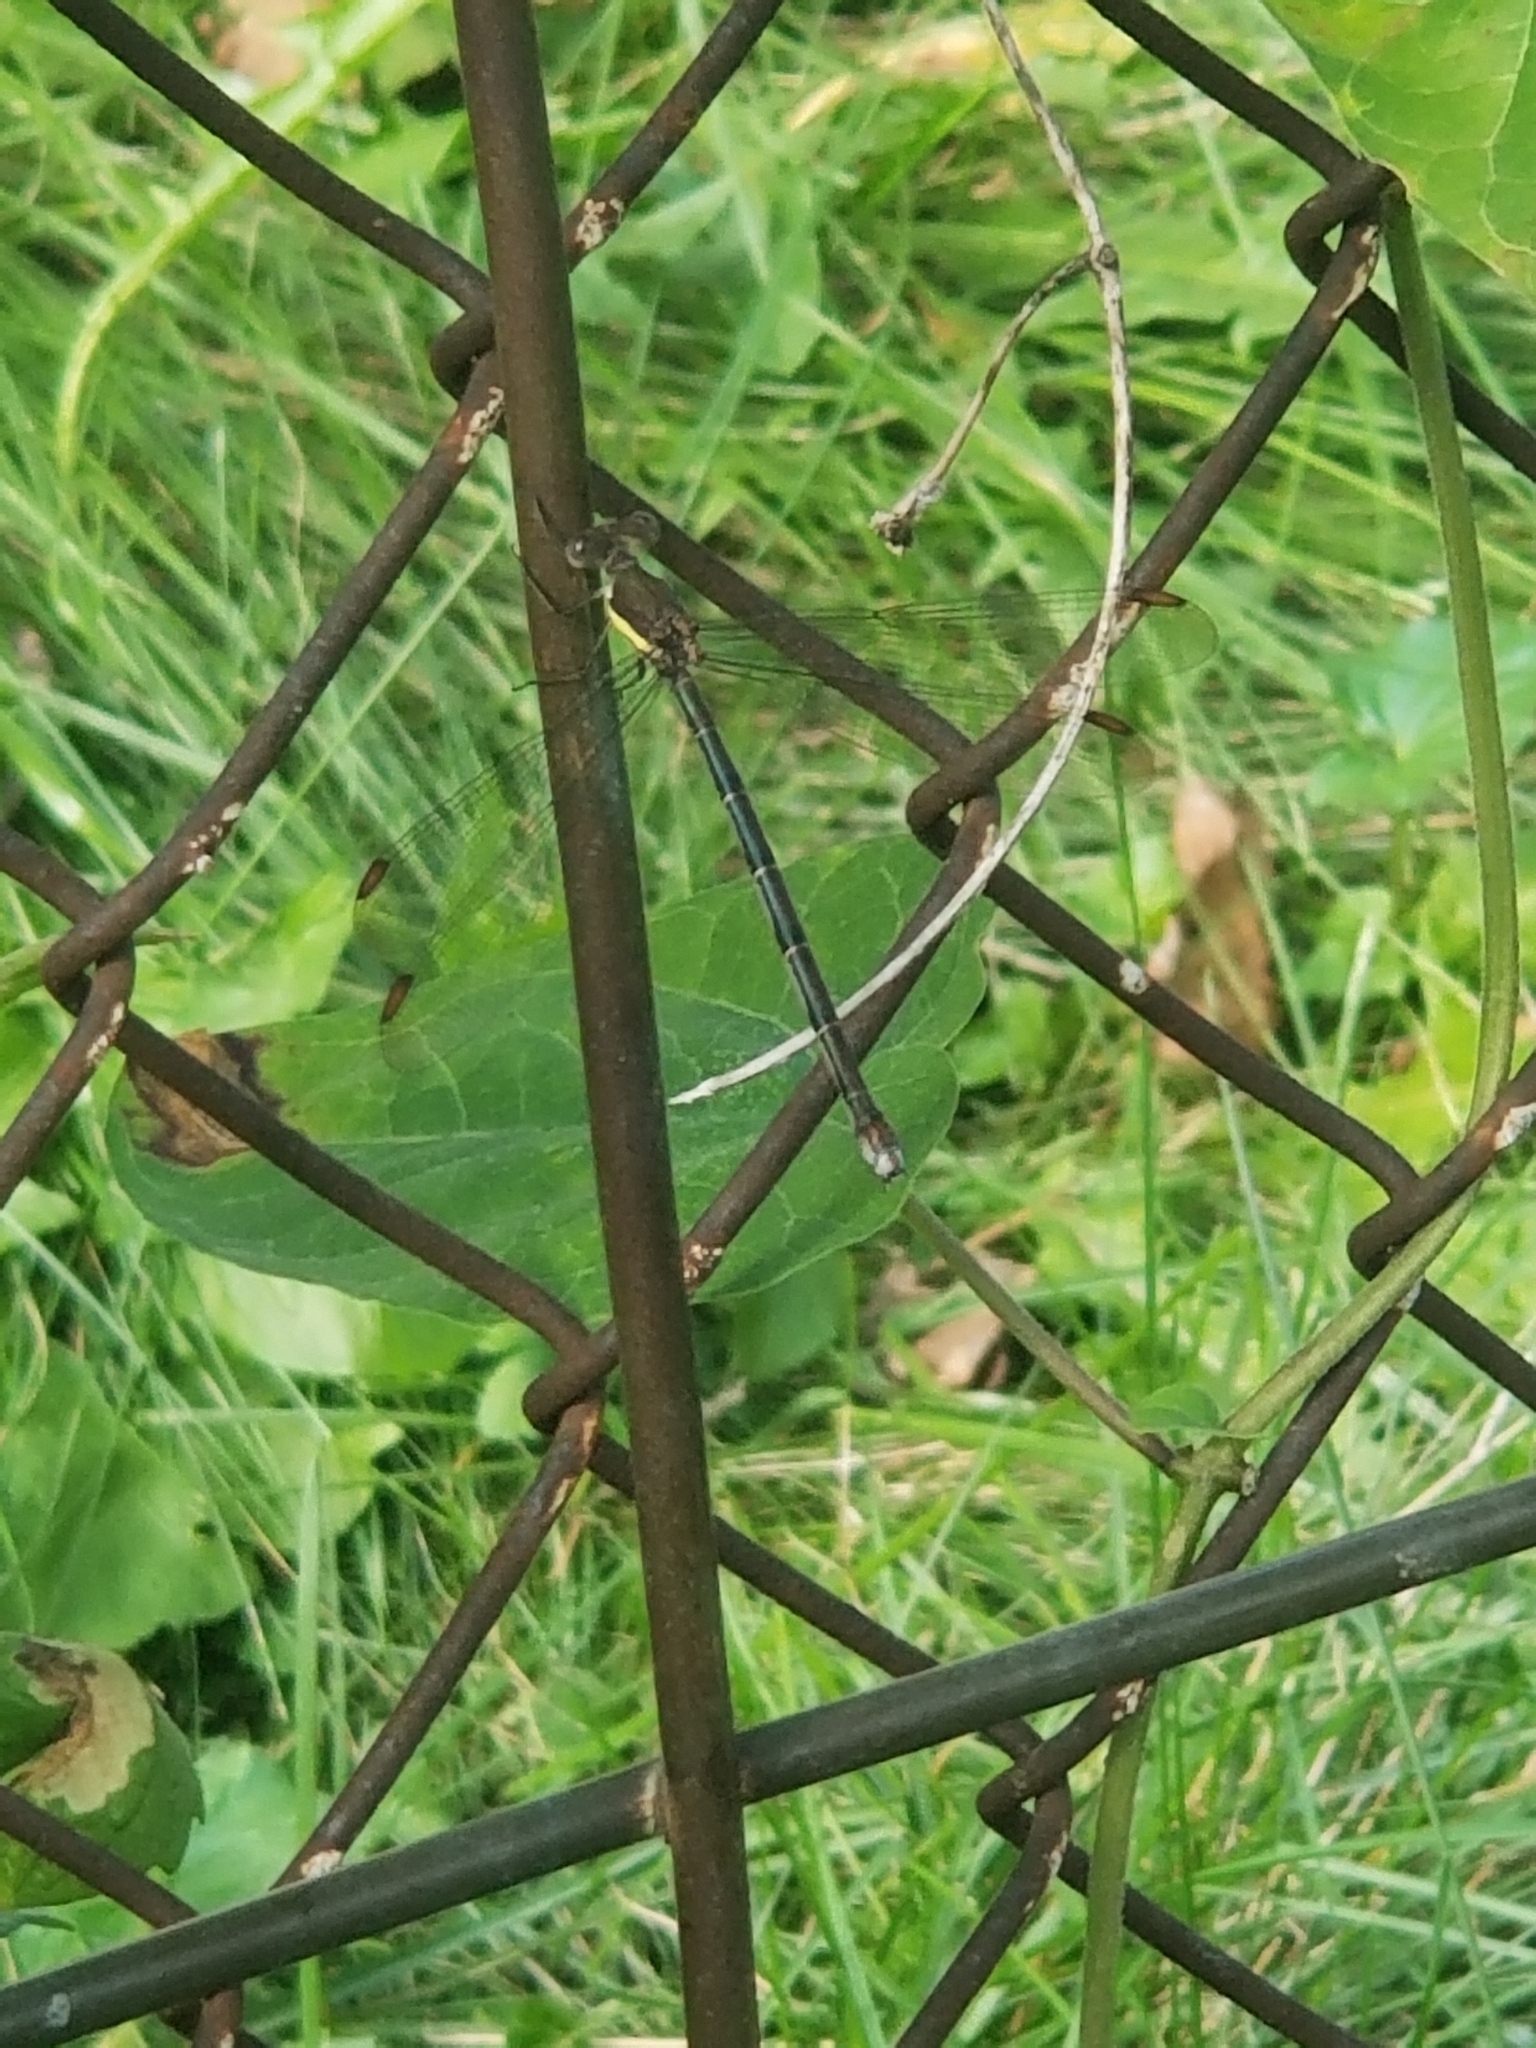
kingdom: Animalia
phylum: Arthropoda
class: Insecta
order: Odonata
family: Lestidae
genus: Archilestes
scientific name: Archilestes grandis
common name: Great spreadwing
